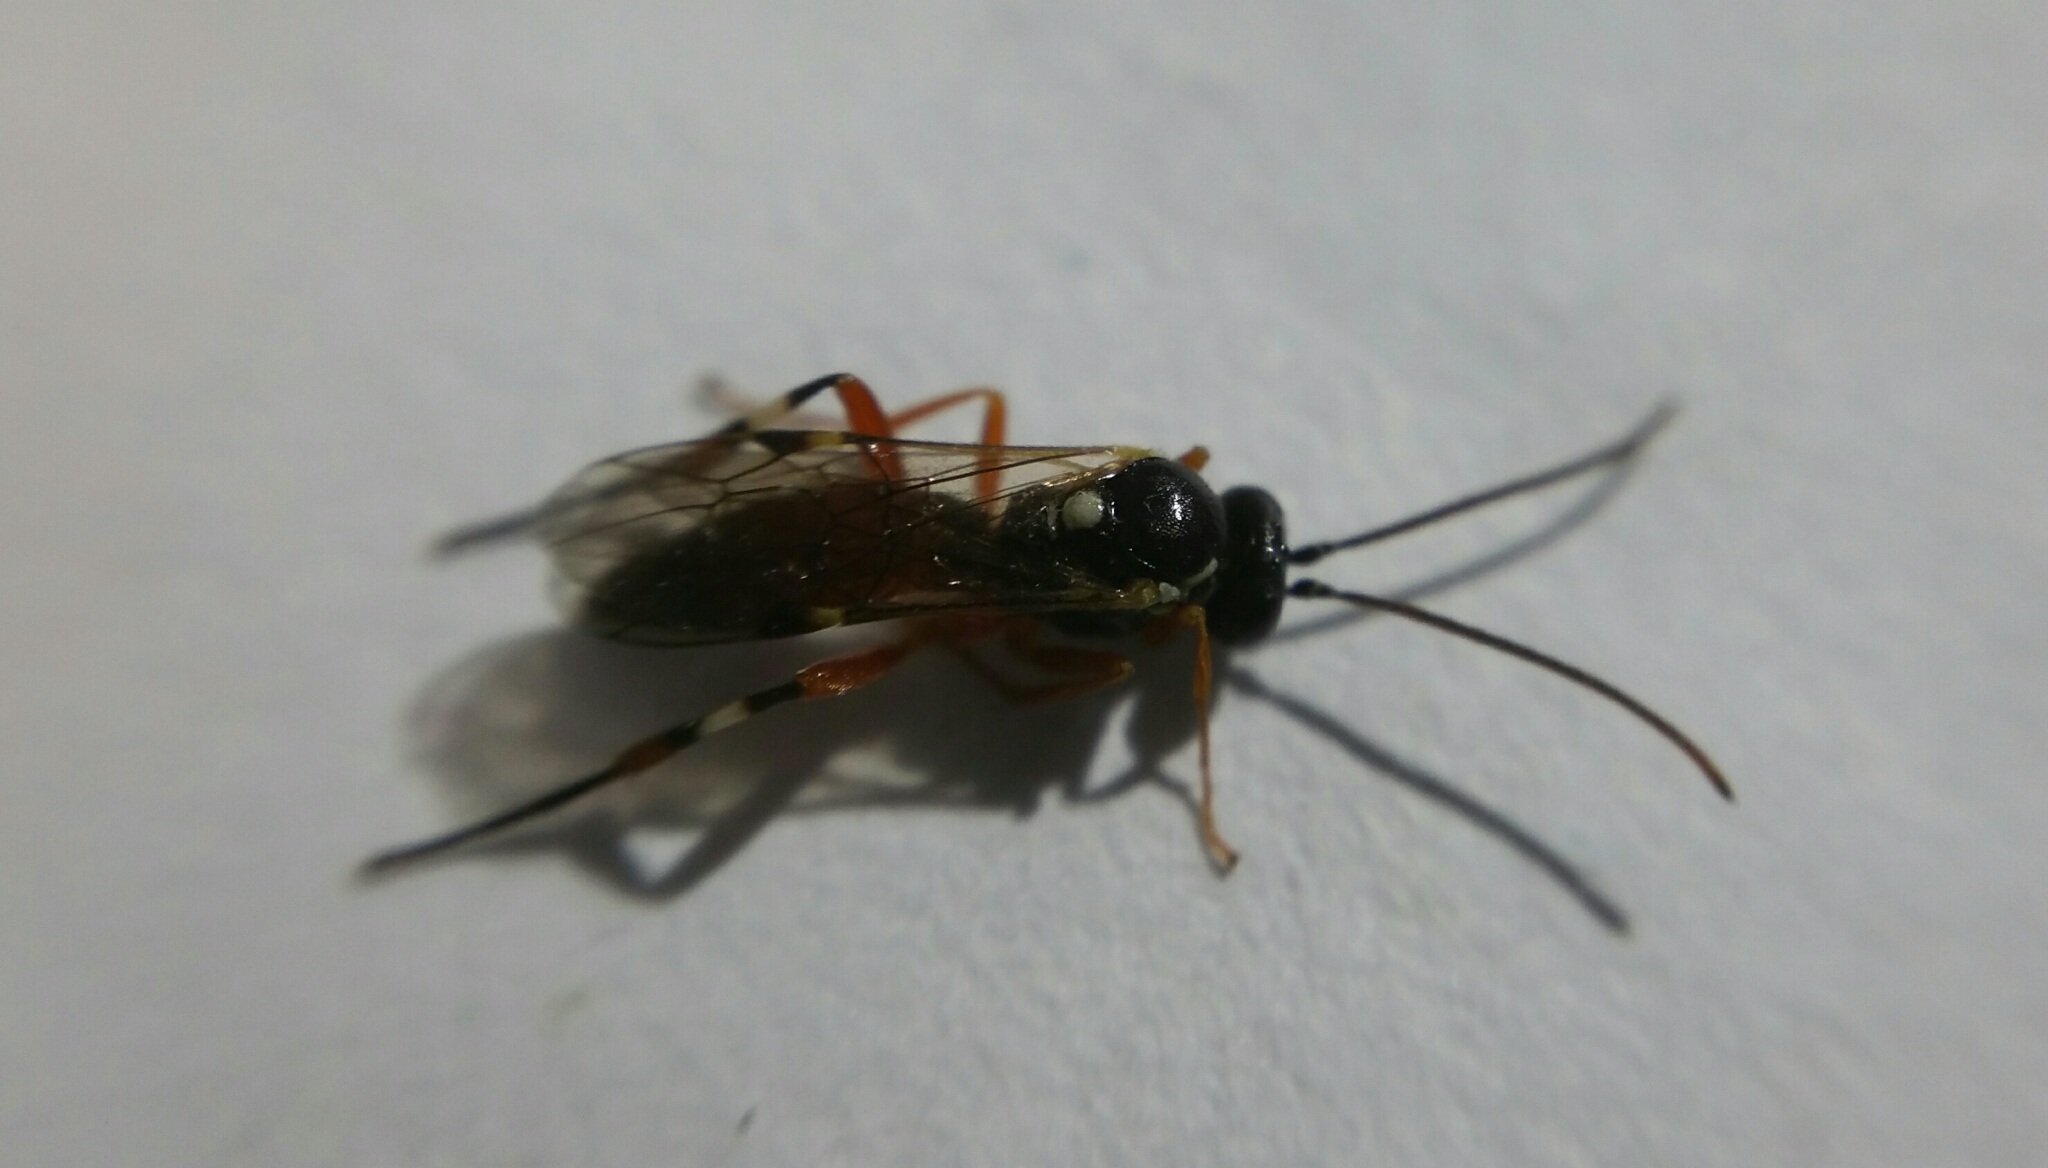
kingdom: Animalia
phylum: Arthropoda
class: Insecta
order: Hymenoptera
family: Ichneumonidae
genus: Diplazon
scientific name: Diplazon laetatorius
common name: Parasitoid wasp
